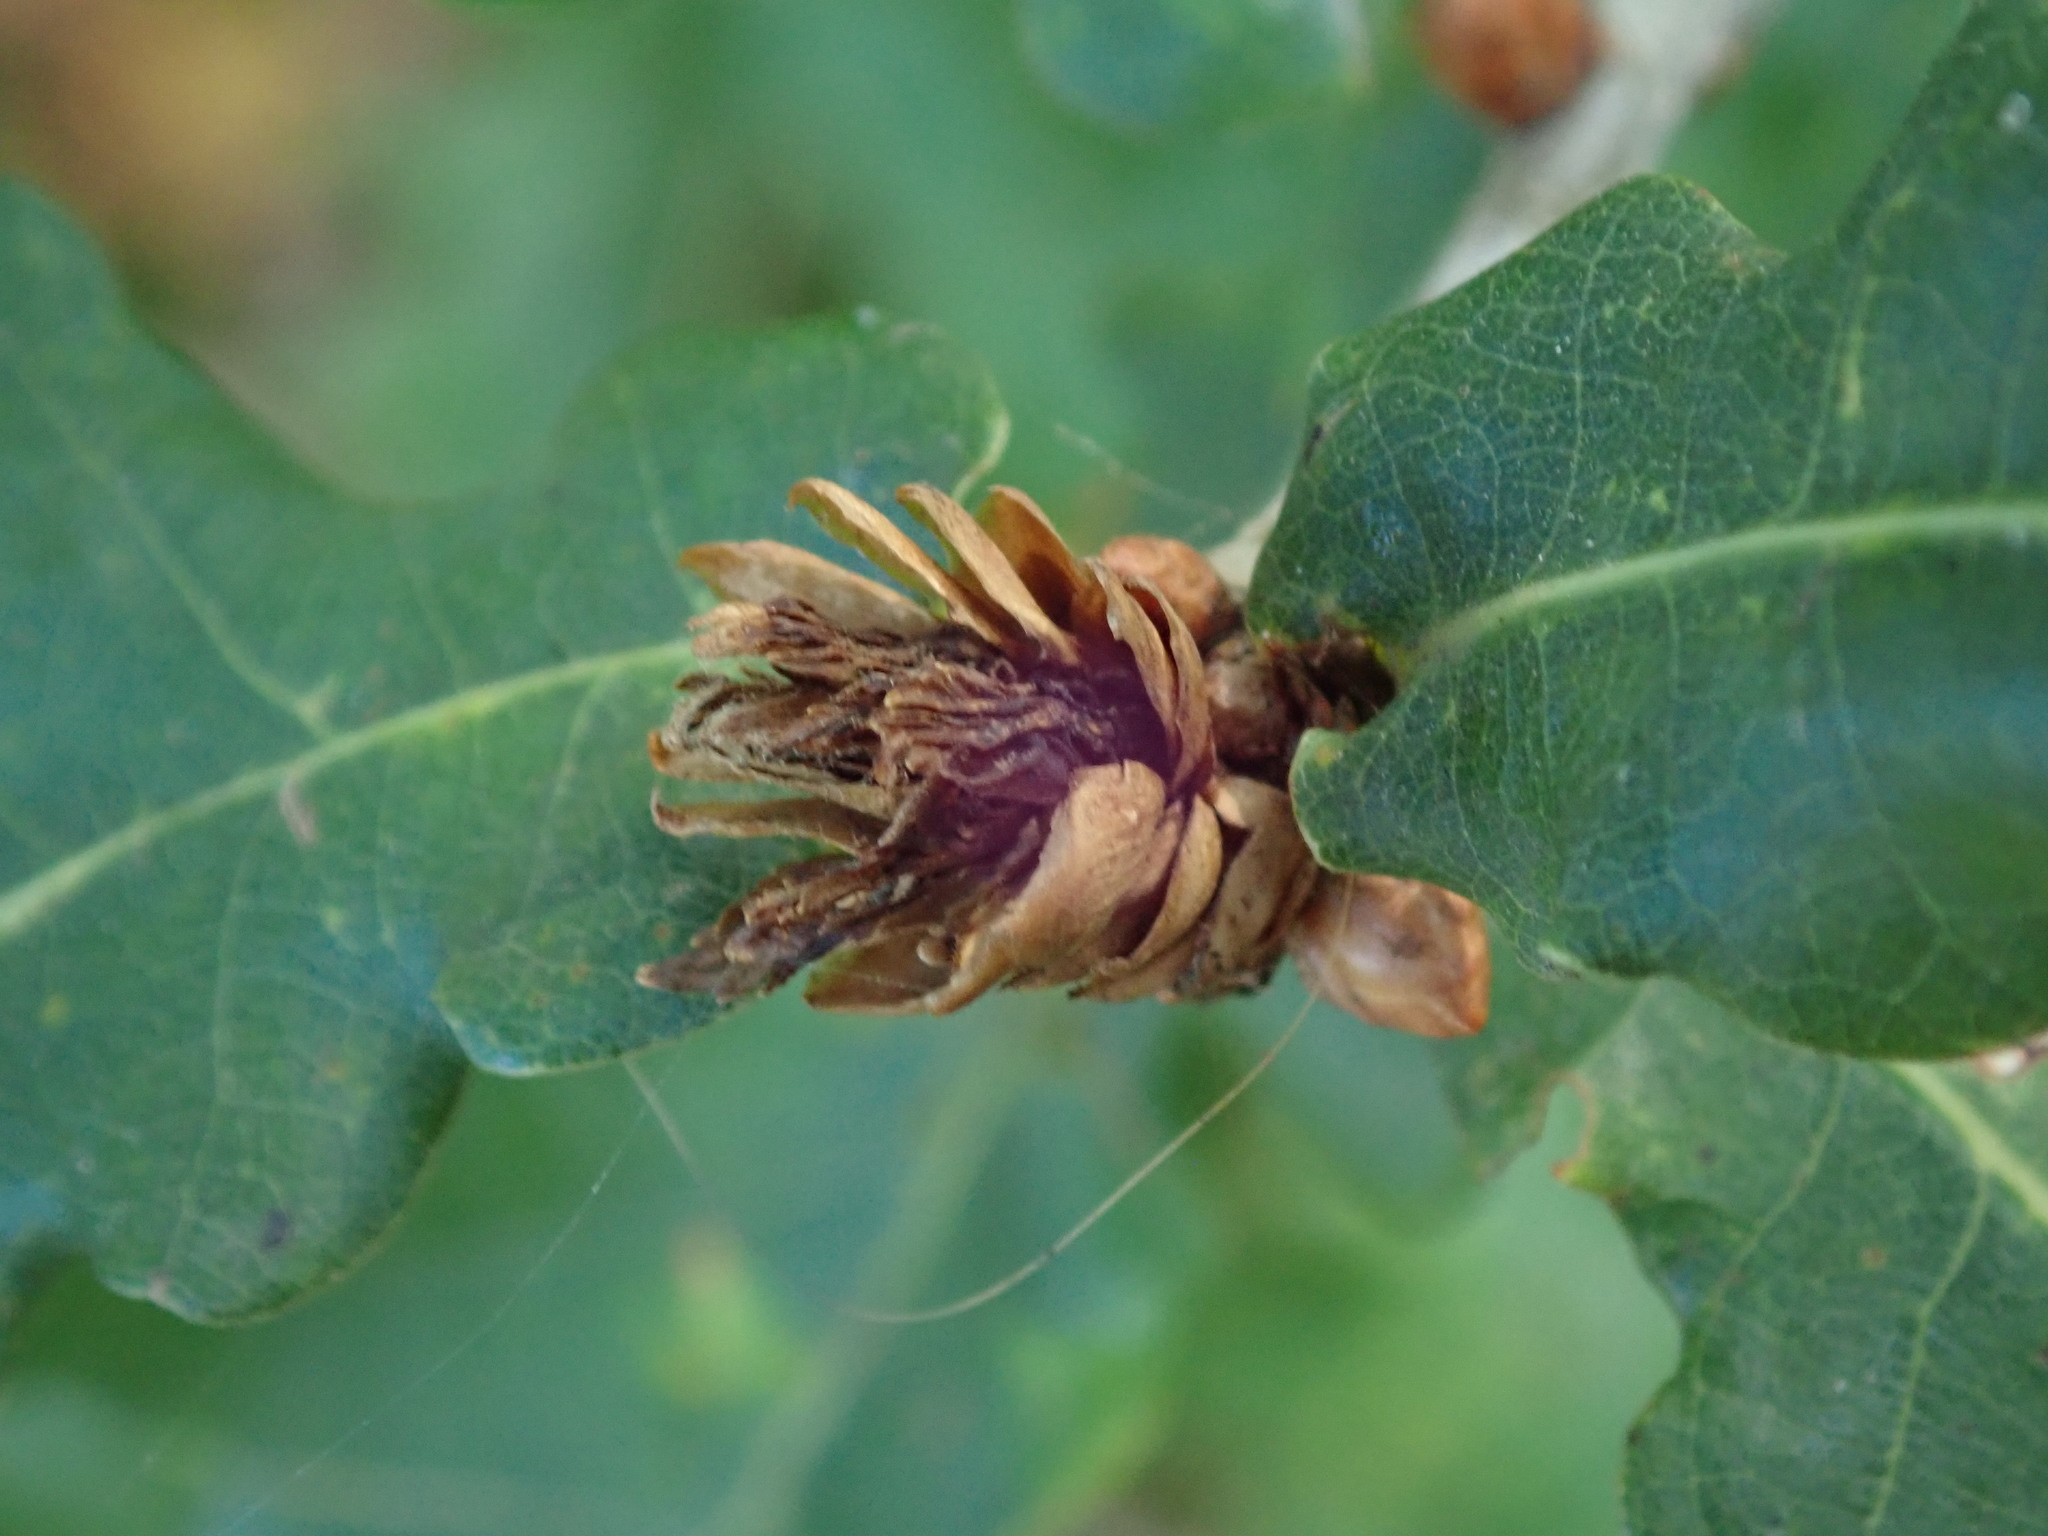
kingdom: Animalia
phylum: Arthropoda
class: Insecta
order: Hymenoptera
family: Cynipidae
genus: Andricus
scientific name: Andricus foecundatrix
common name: Artichoke gall
